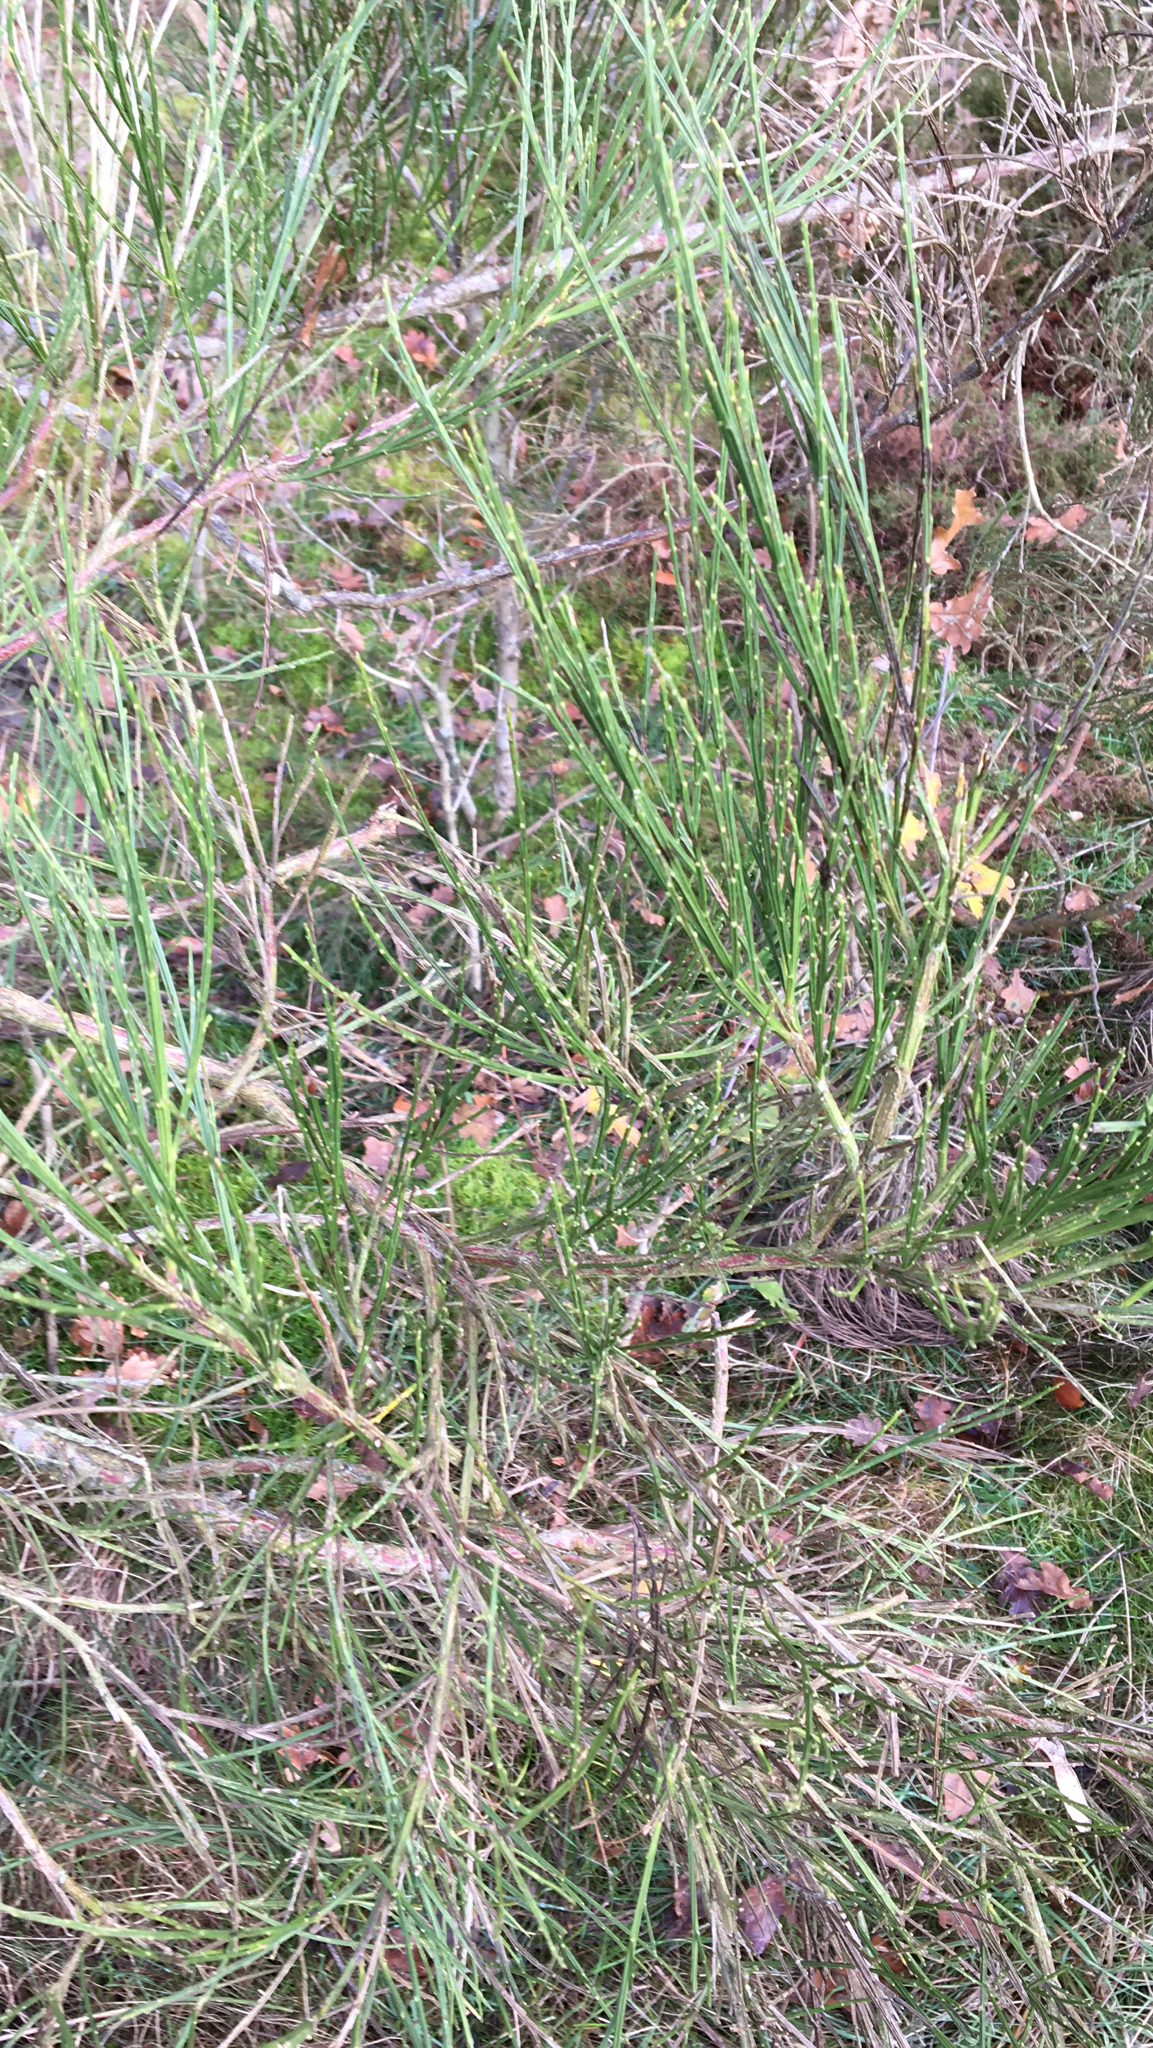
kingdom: Plantae
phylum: Tracheophyta
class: Magnoliopsida
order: Fabales
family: Fabaceae
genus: Cytisus
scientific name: Cytisus scoparius
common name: Scotch broom
